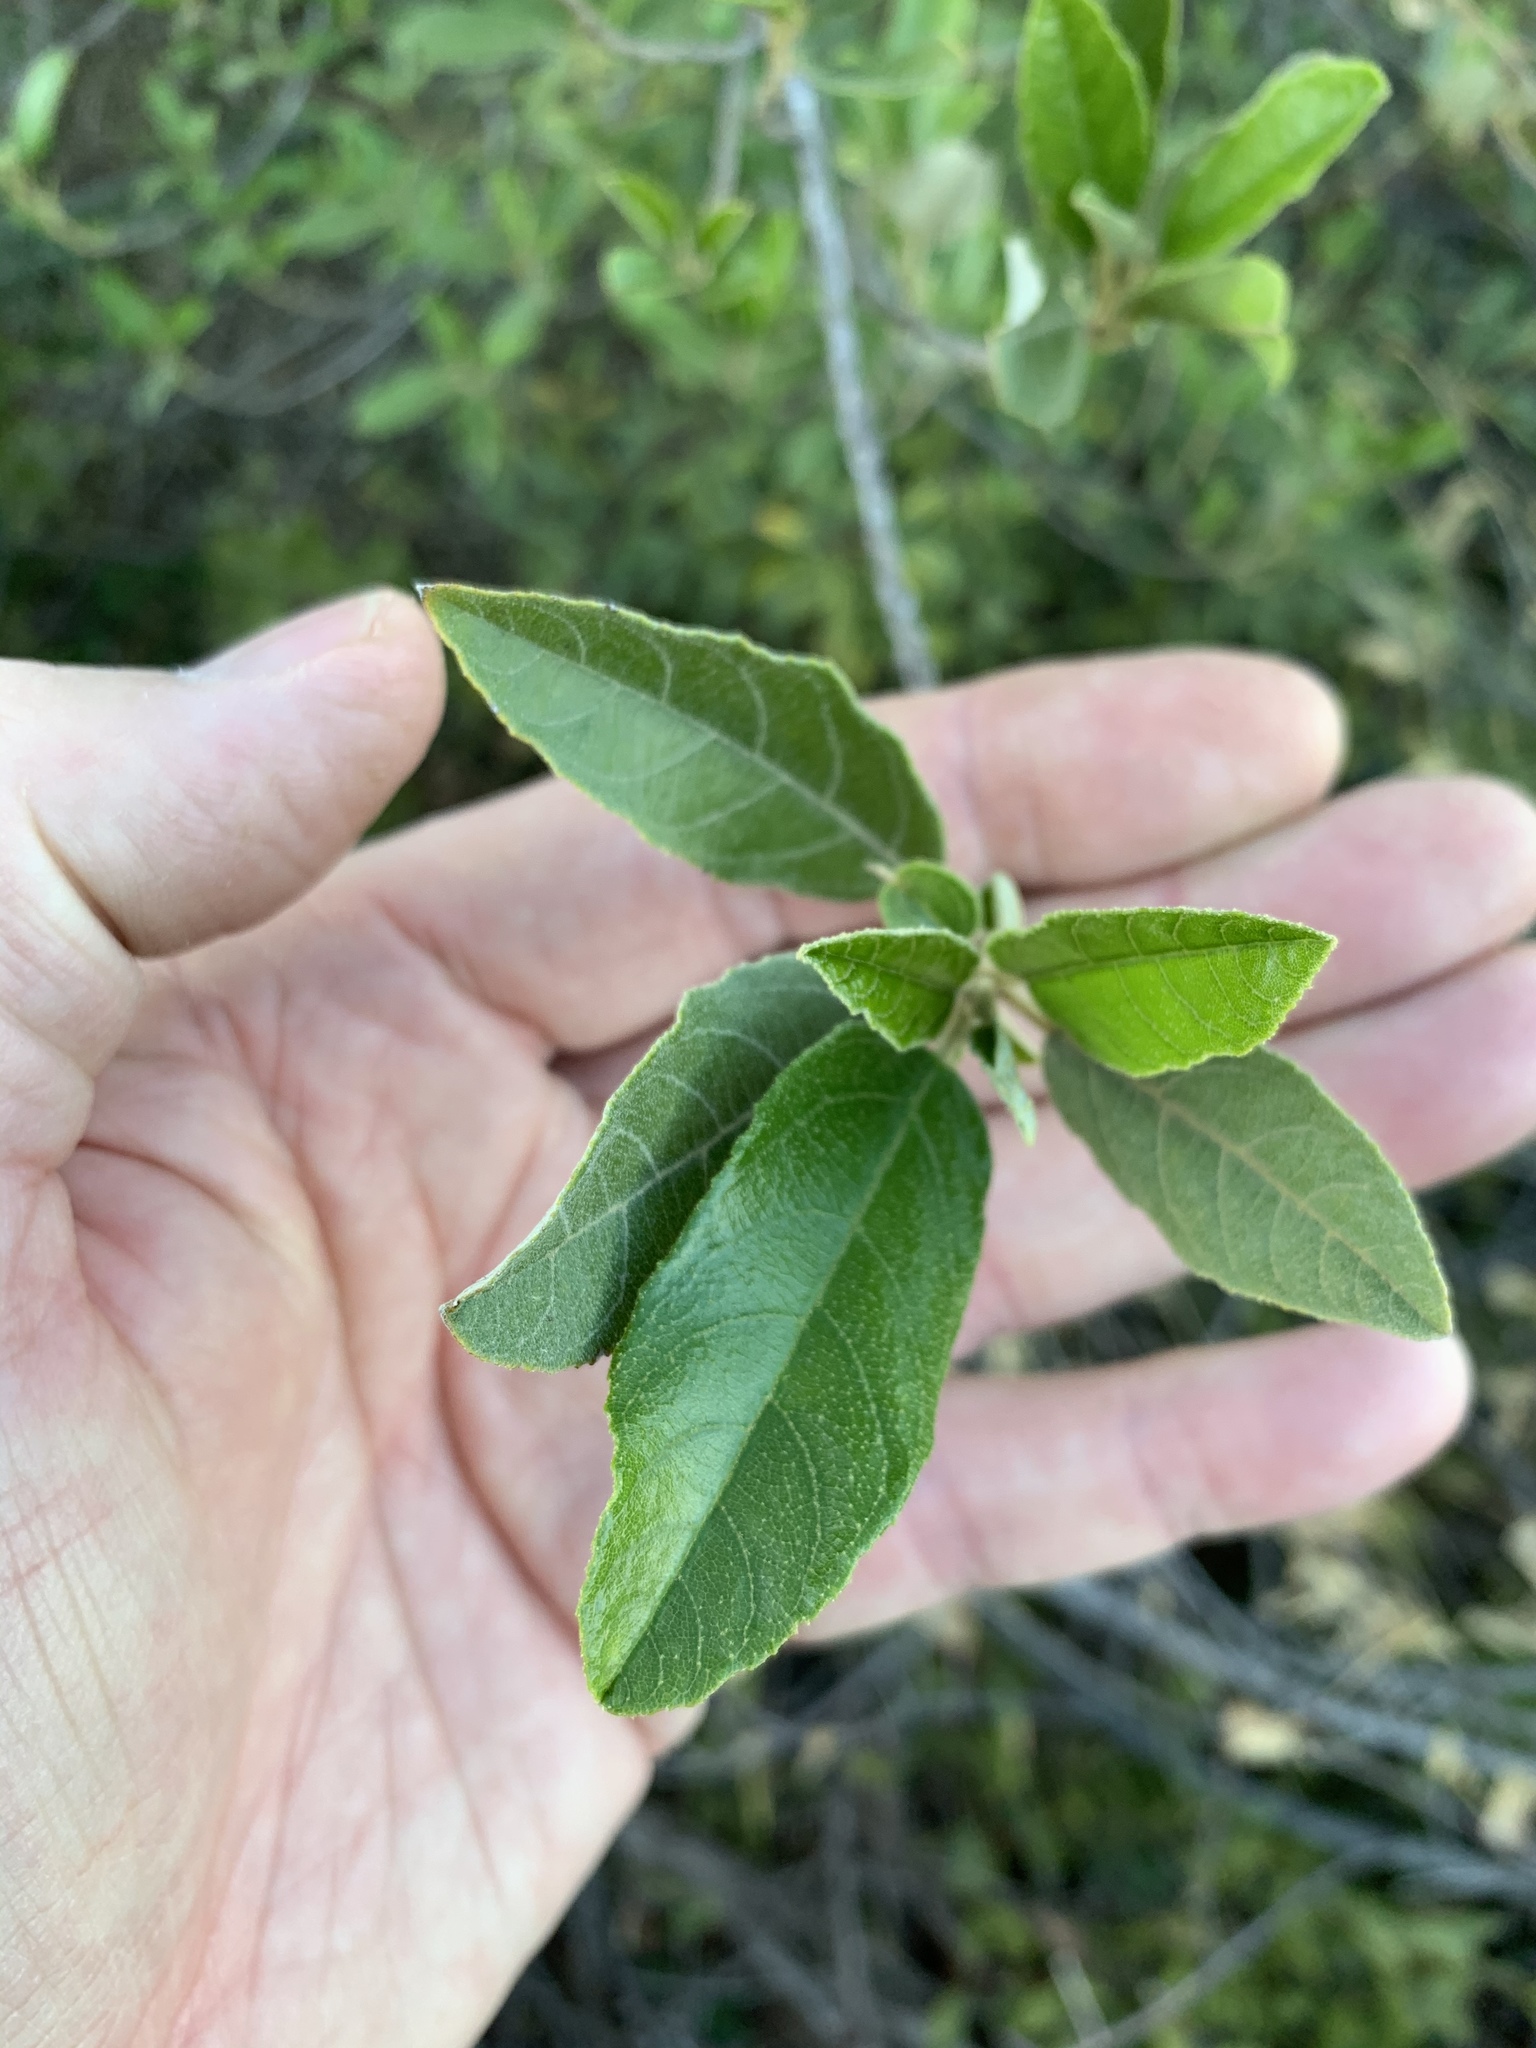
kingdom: Plantae
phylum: Tracheophyta
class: Magnoliopsida
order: Malpighiales
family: Achariaceae
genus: Kiggelaria
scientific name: Kiggelaria africana
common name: Wild peach
